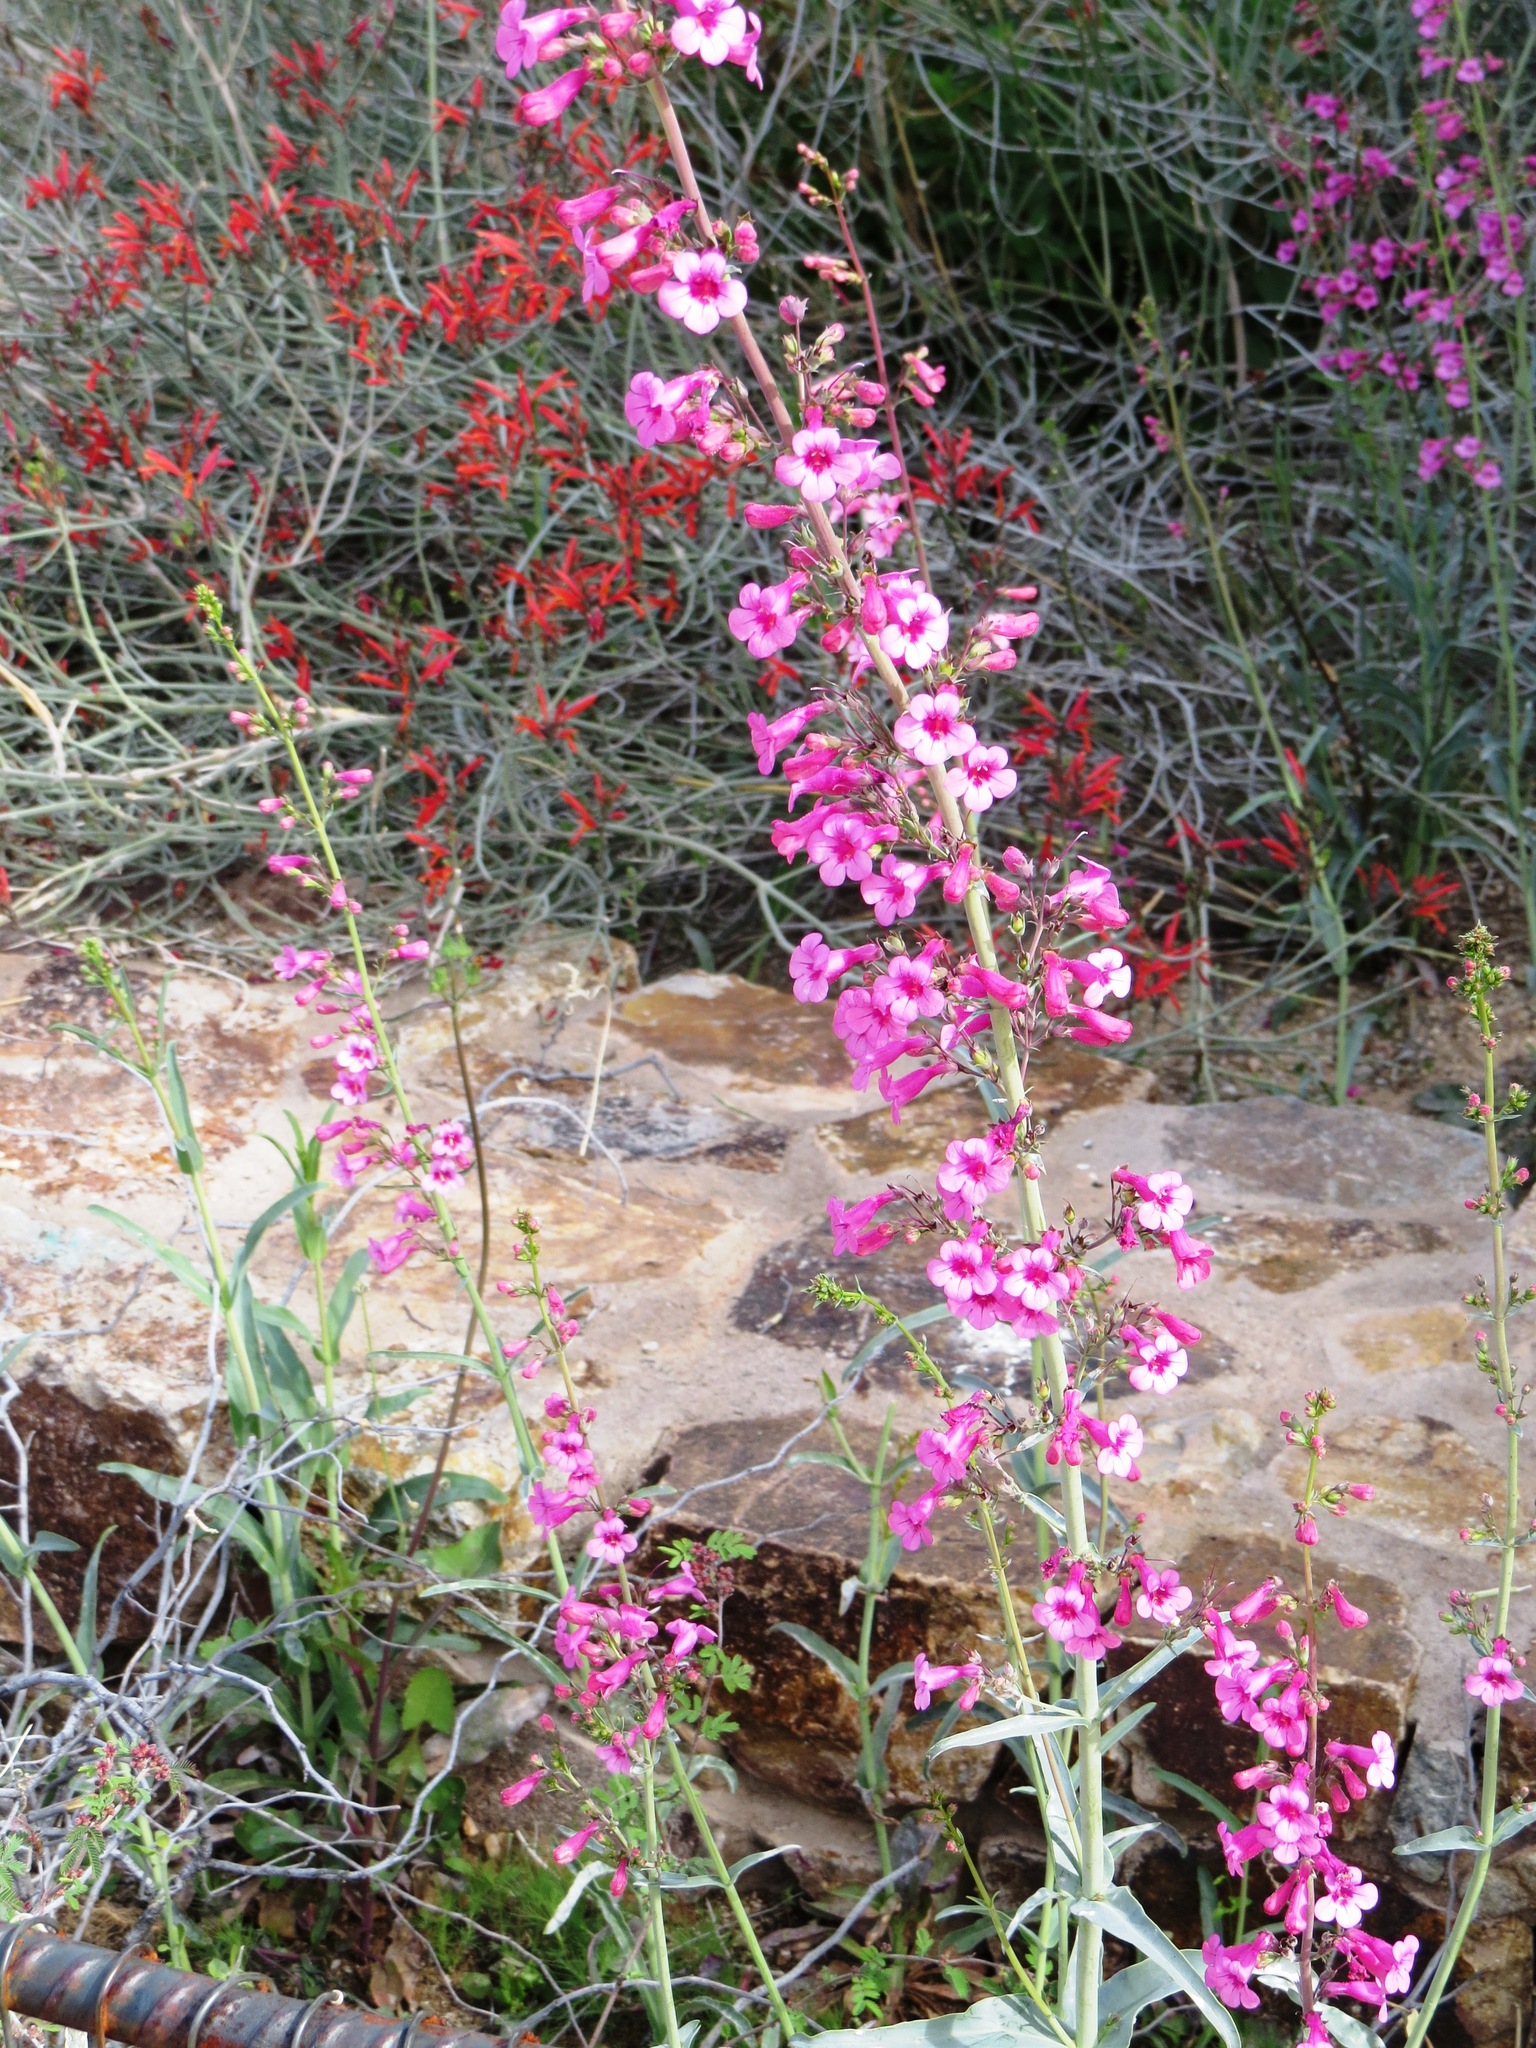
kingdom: Plantae
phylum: Tracheophyta
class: Magnoliopsida
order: Lamiales
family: Plantaginaceae
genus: Penstemon
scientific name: Penstemon parryi
